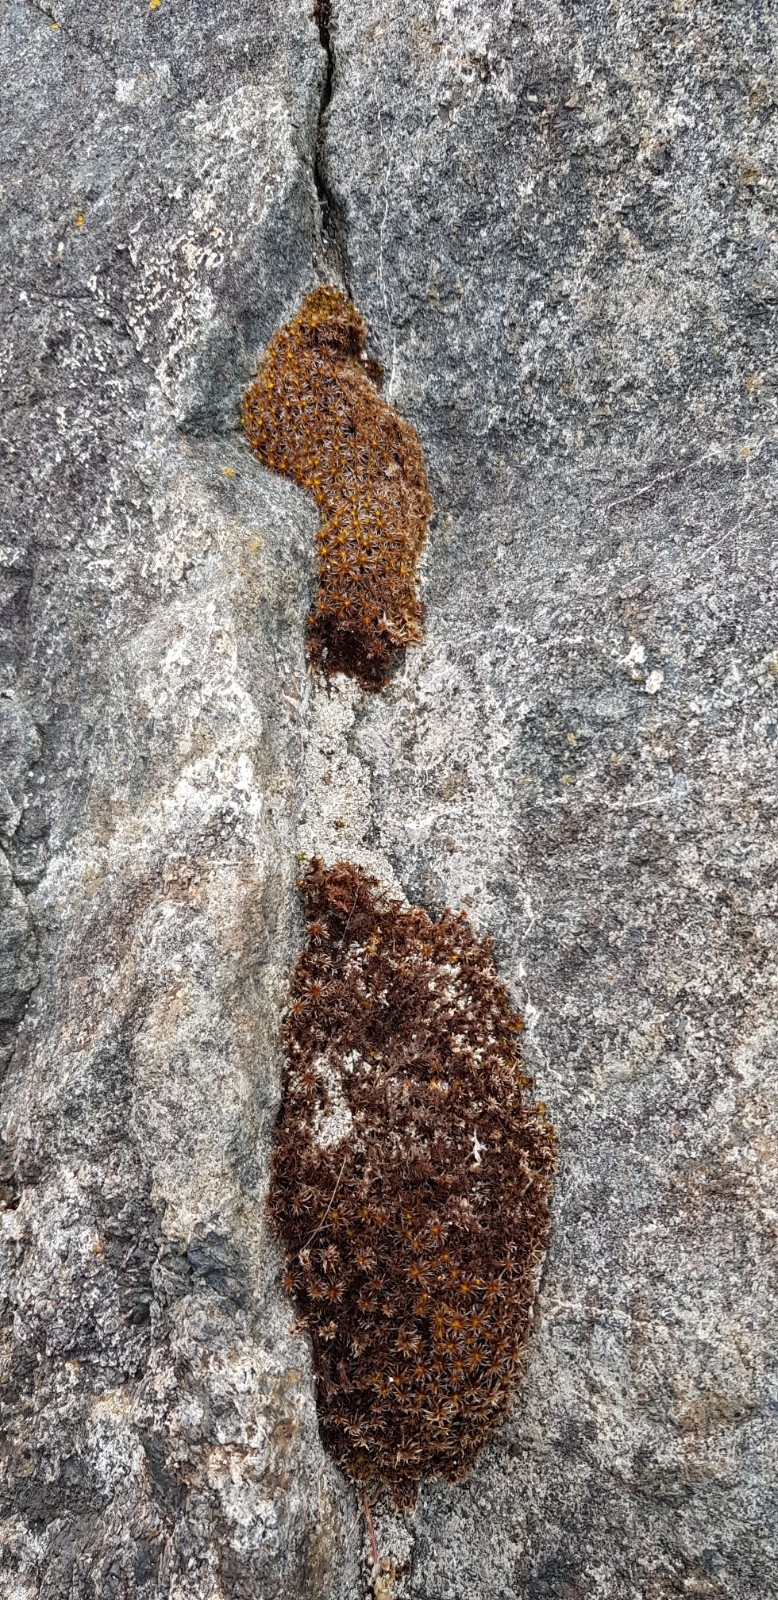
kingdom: Plantae
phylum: Bryophyta
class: Bryopsida
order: Pottiales
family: Pottiaceae
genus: Syntrichia
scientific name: Syntrichia ruralis
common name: Sidewalk screw moss
